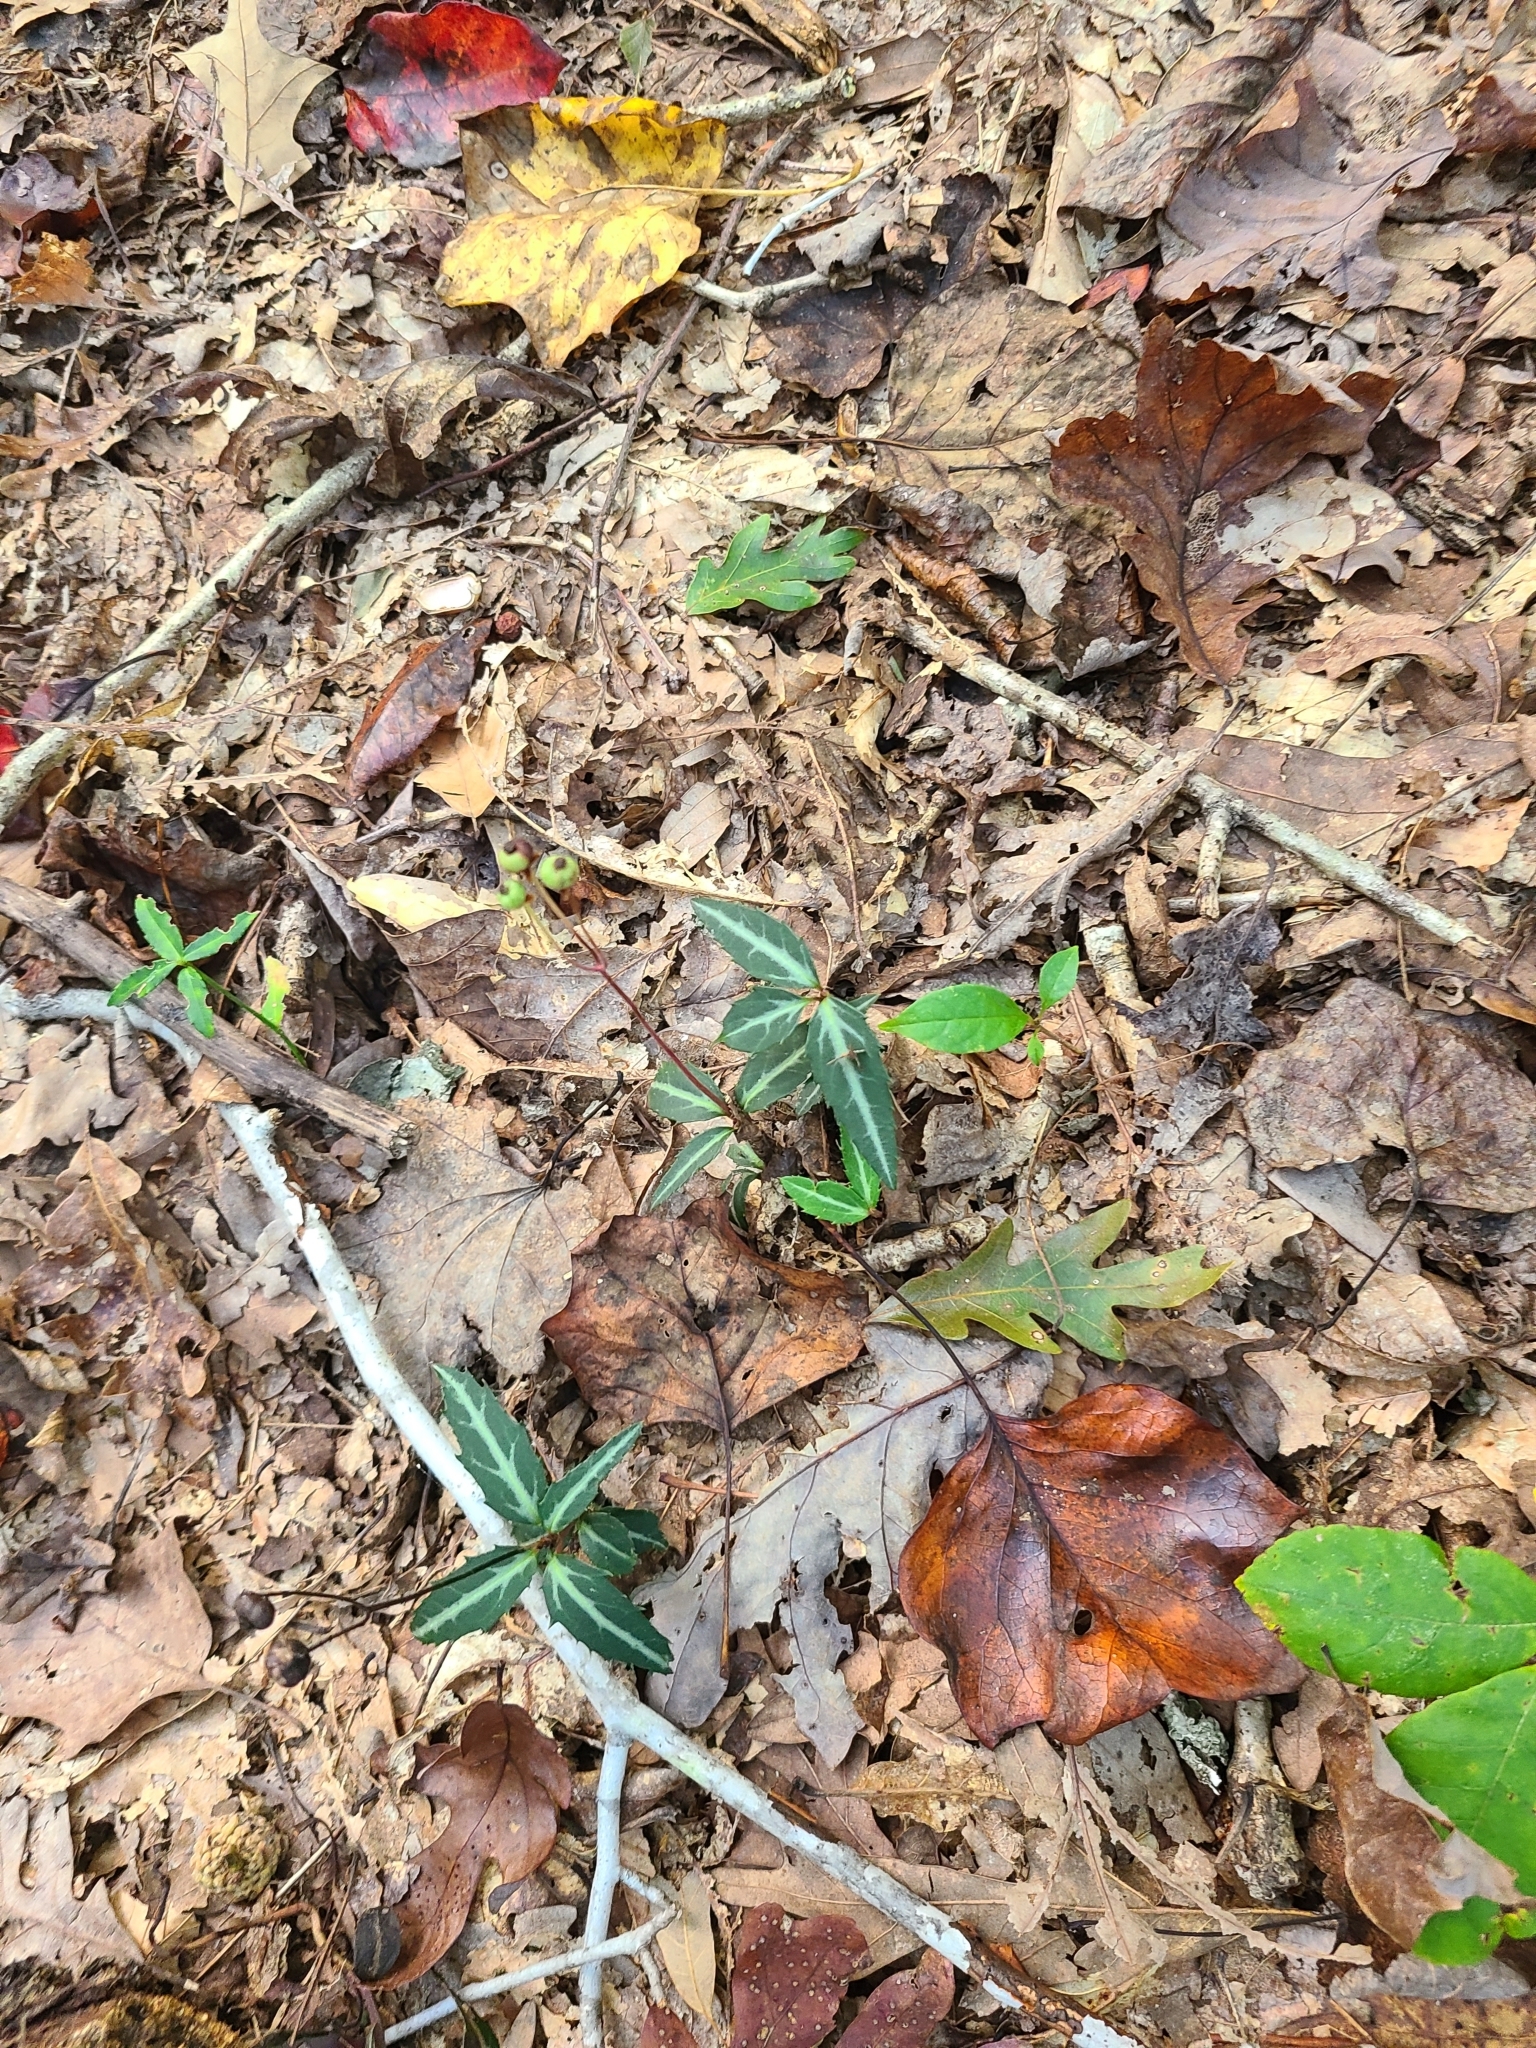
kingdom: Plantae
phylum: Tracheophyta
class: Magnoliopsida
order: Ericales
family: Ericaceae
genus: Chimaphila
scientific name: Chimaphila maculata
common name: Spotted pipsissewa
